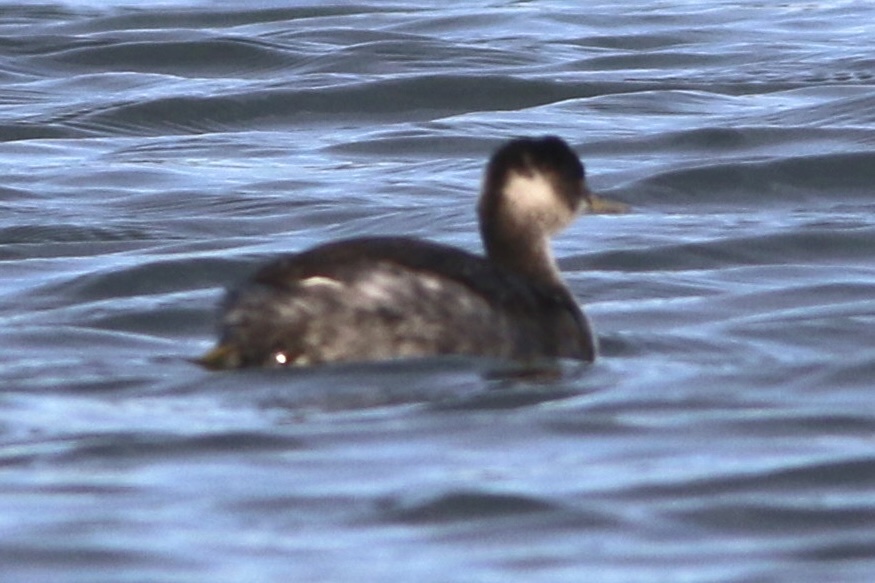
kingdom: Animalia
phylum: Chordata
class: Aves
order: Podicipediformes
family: Podicipedidae
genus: Podiceps
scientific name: Podiceps nigricollis
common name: Black-necked grebe
